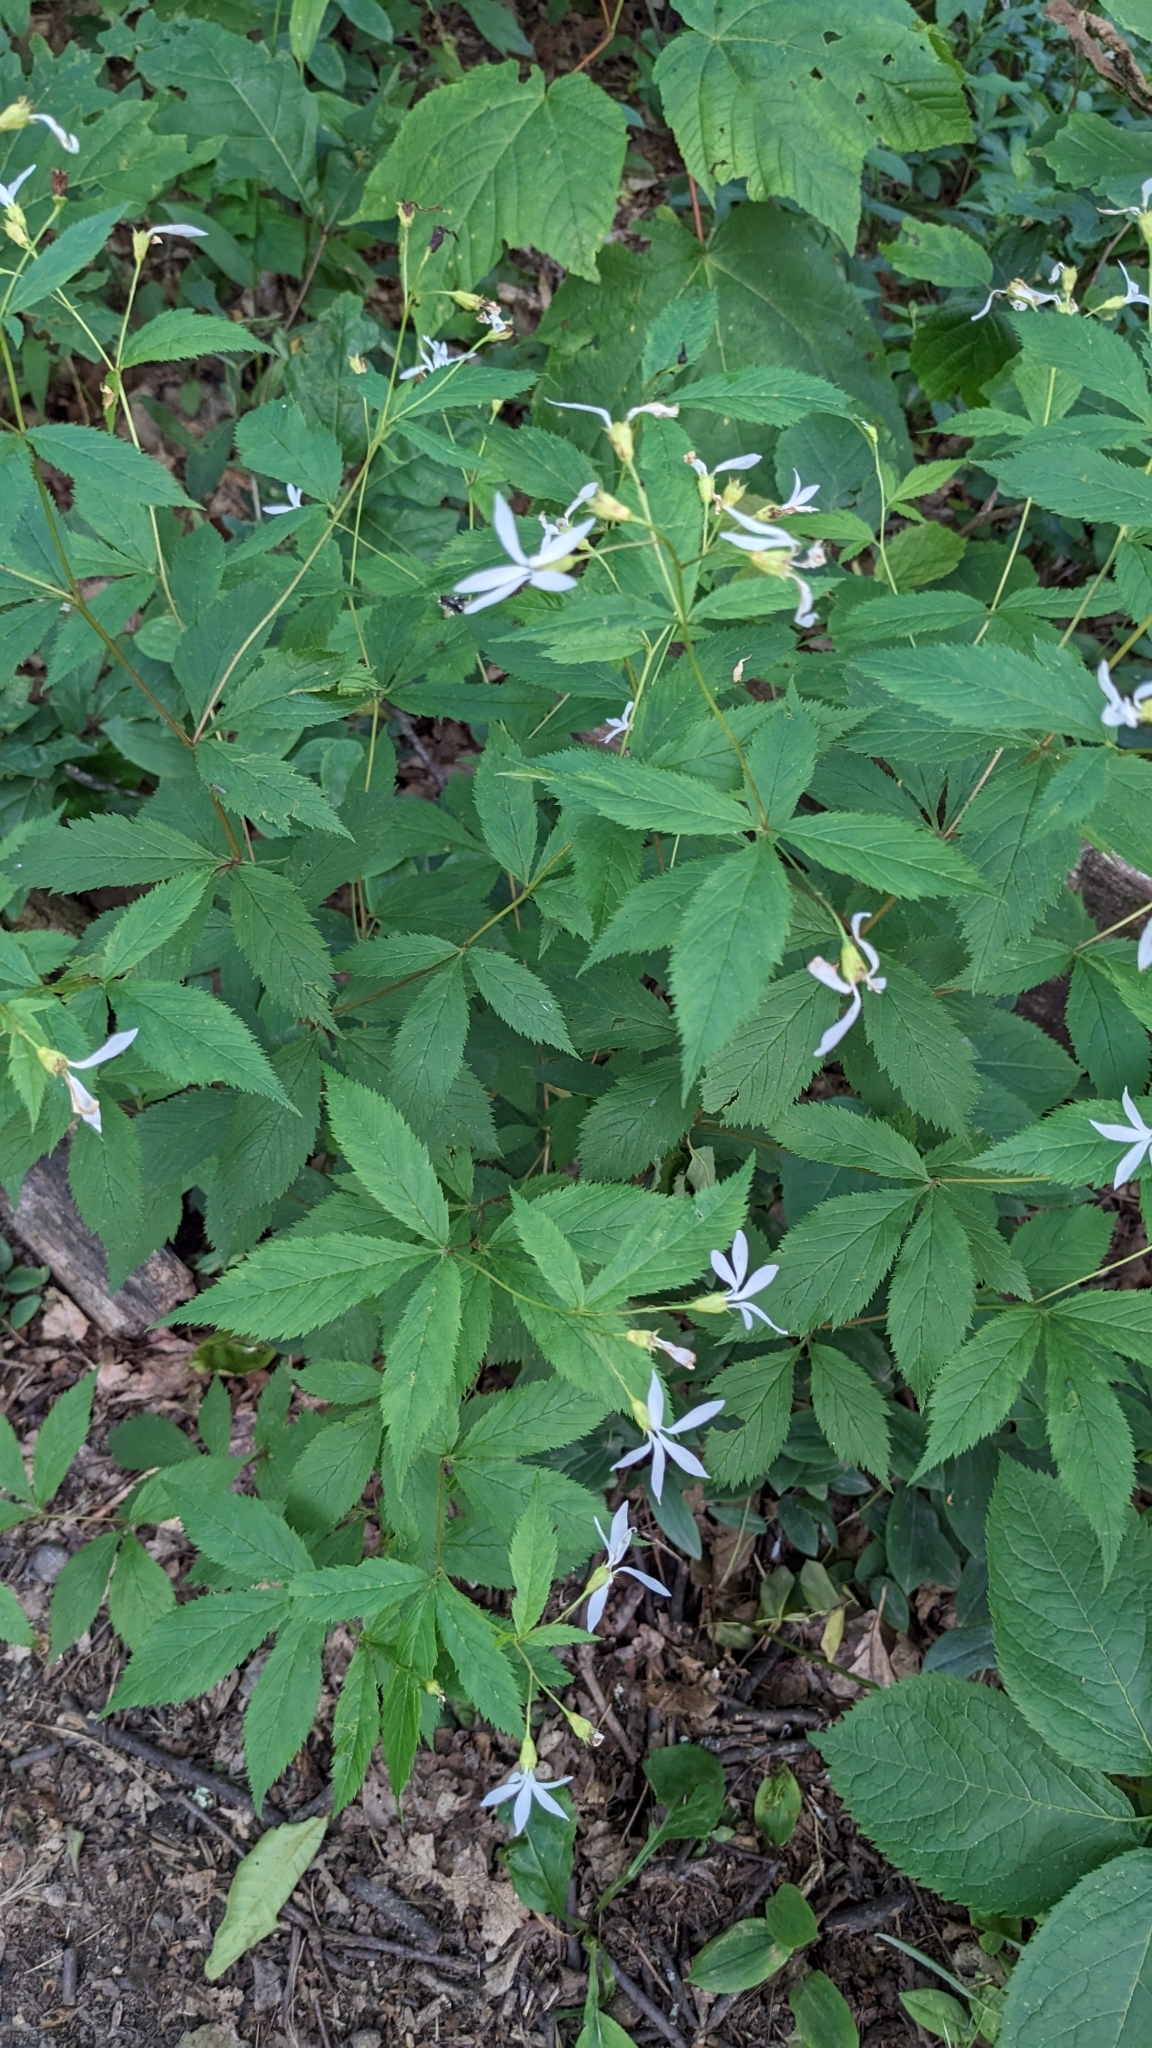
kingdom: Plantae
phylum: Tracheophyta
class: Magnoliopsida
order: Rosales
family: Rosaceae
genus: Gillenia
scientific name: Gillenia trifoliata
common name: Bowman's-root
